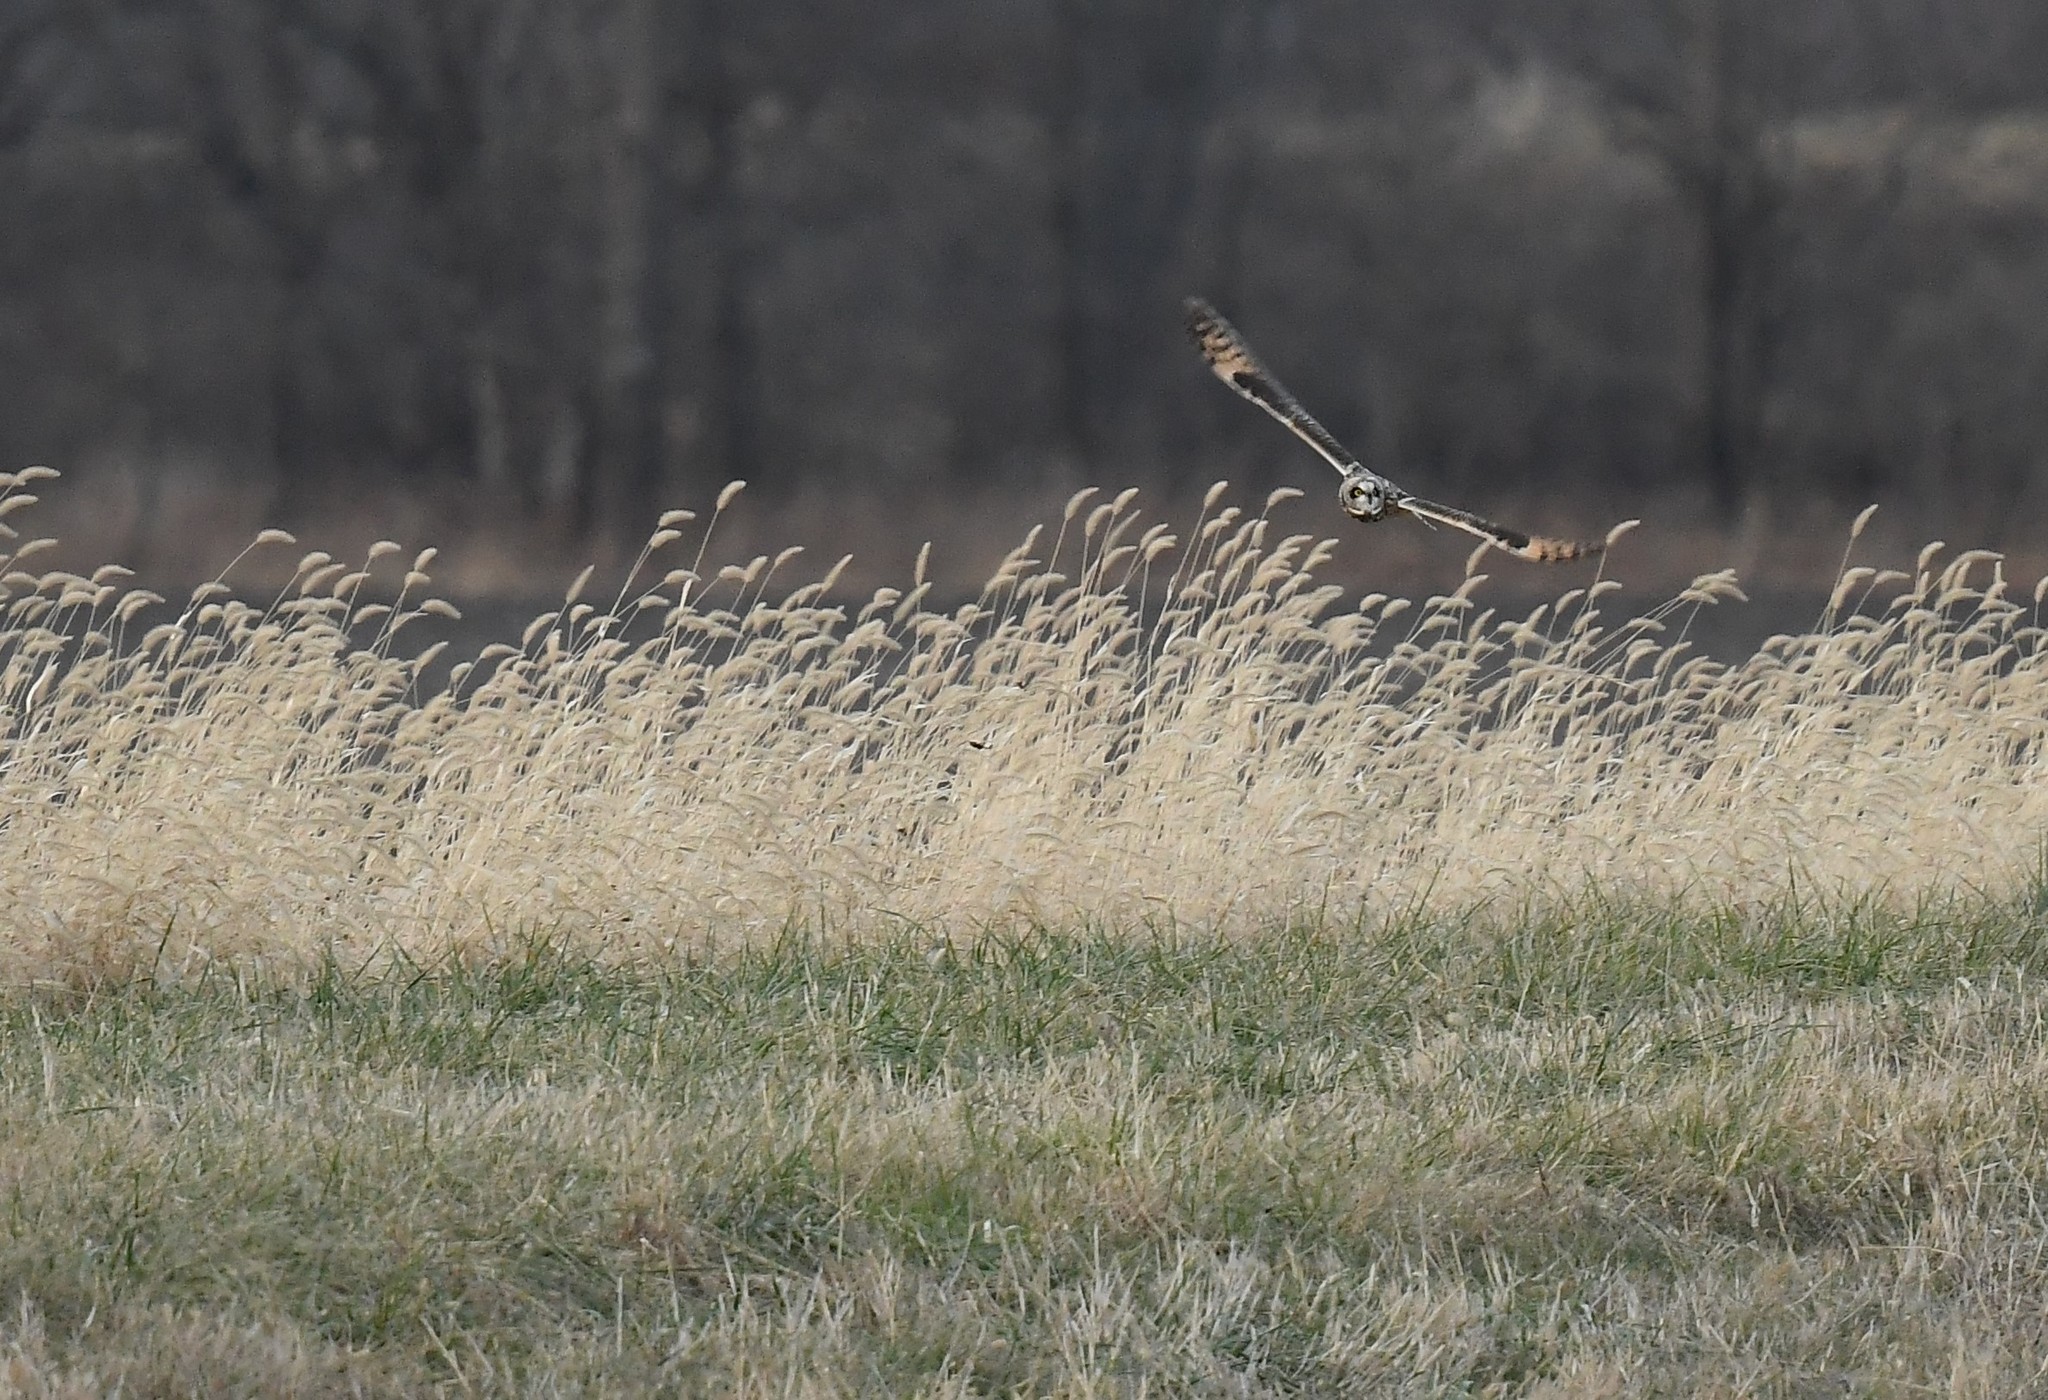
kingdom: Animalia
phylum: Chordata
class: Aves
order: Strigiformes
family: Strigidae
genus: Asio
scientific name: Asio flammeus
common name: Short-eared owl
